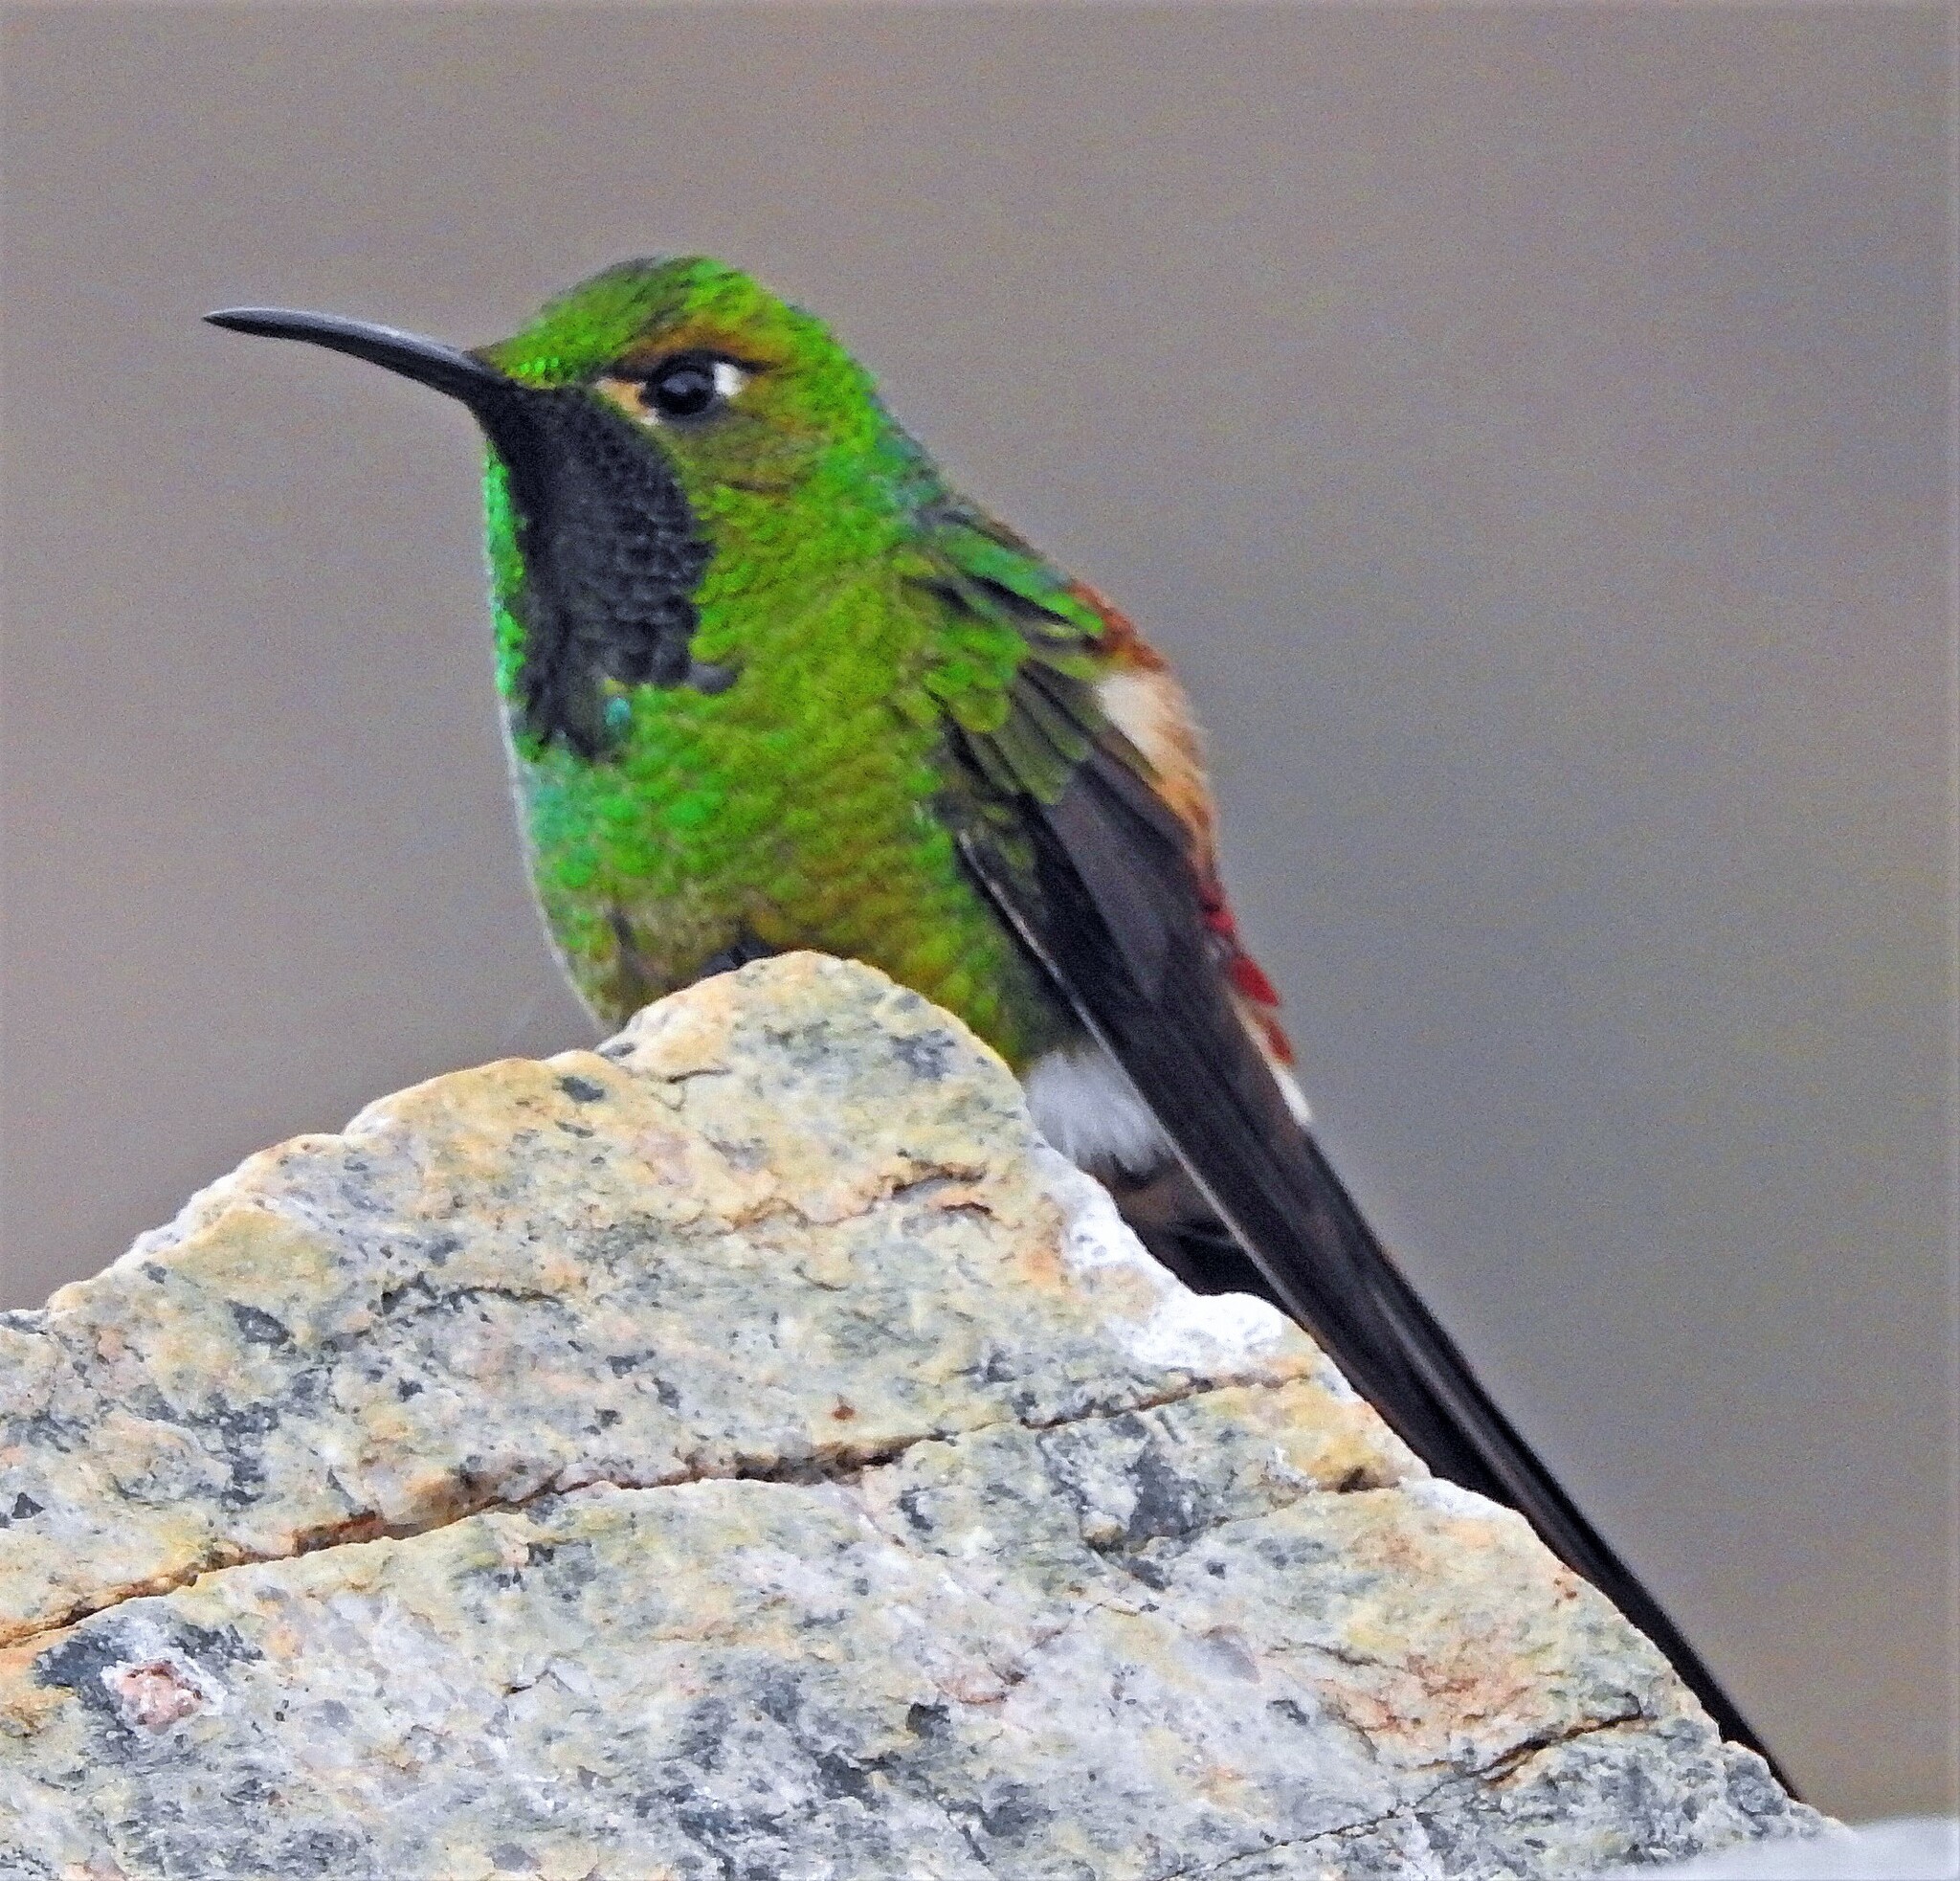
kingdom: Animalia
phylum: Chordata
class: Aves
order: Apodiformes
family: Trochilidae
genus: Sappho
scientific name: Sappho sparganurus
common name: Red-tailed comet
